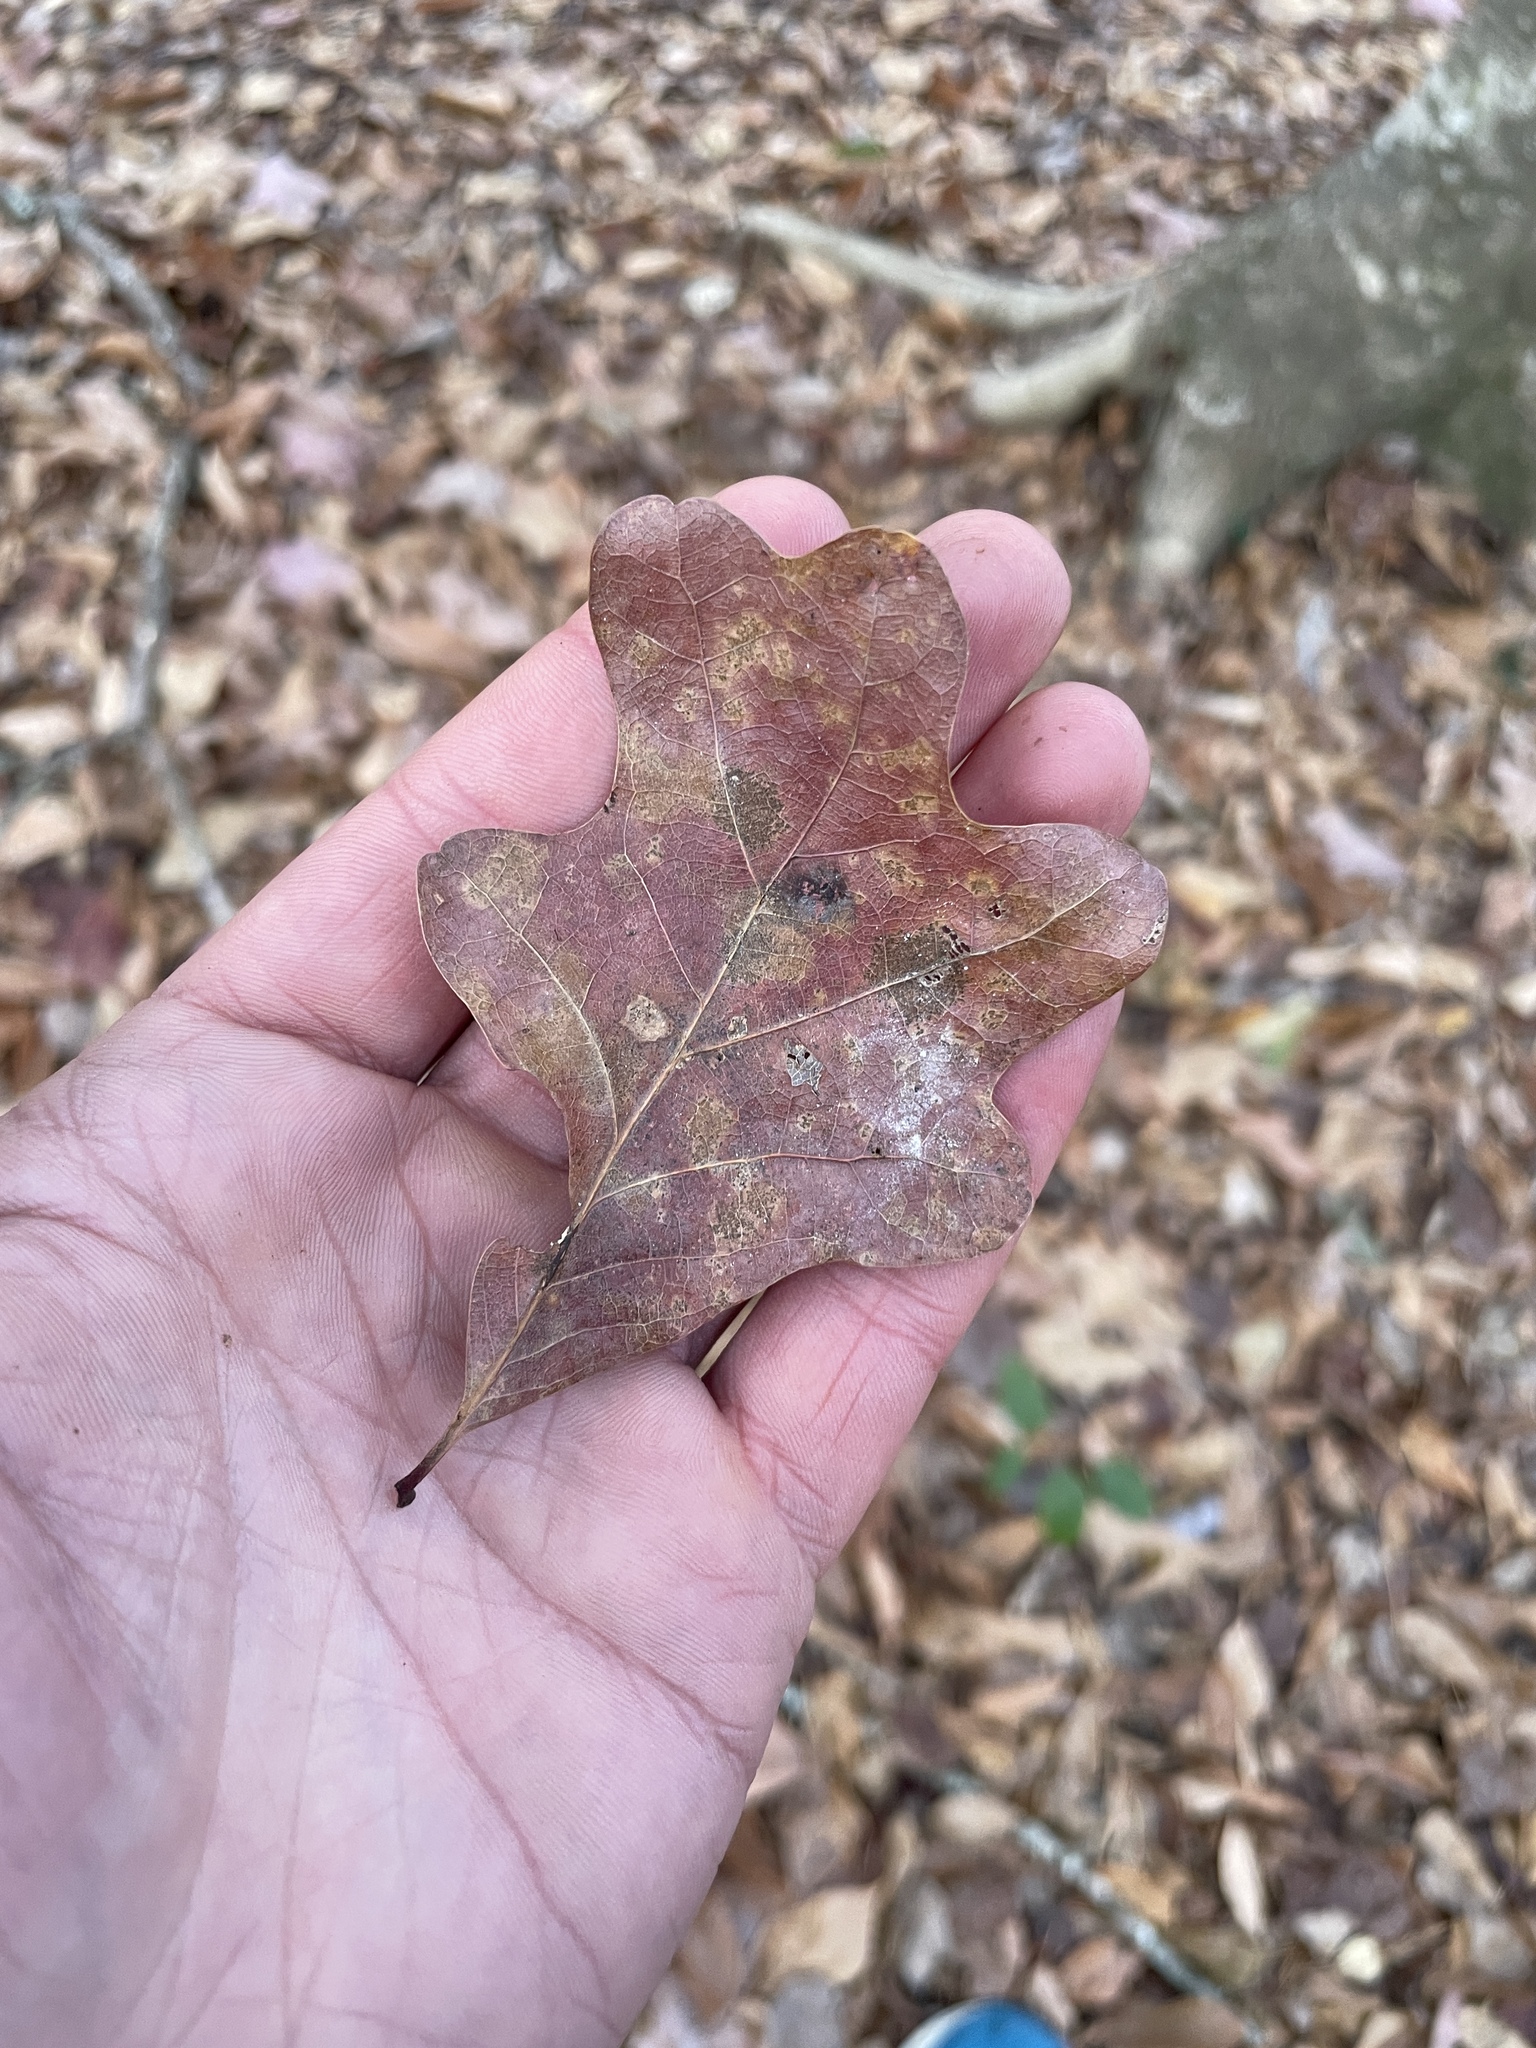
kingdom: Plantae
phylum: Tracheophyta
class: Magnoliopsida
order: Fagales
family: Fagaceae
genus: Quercus
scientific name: Quercus alba
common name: White oak
